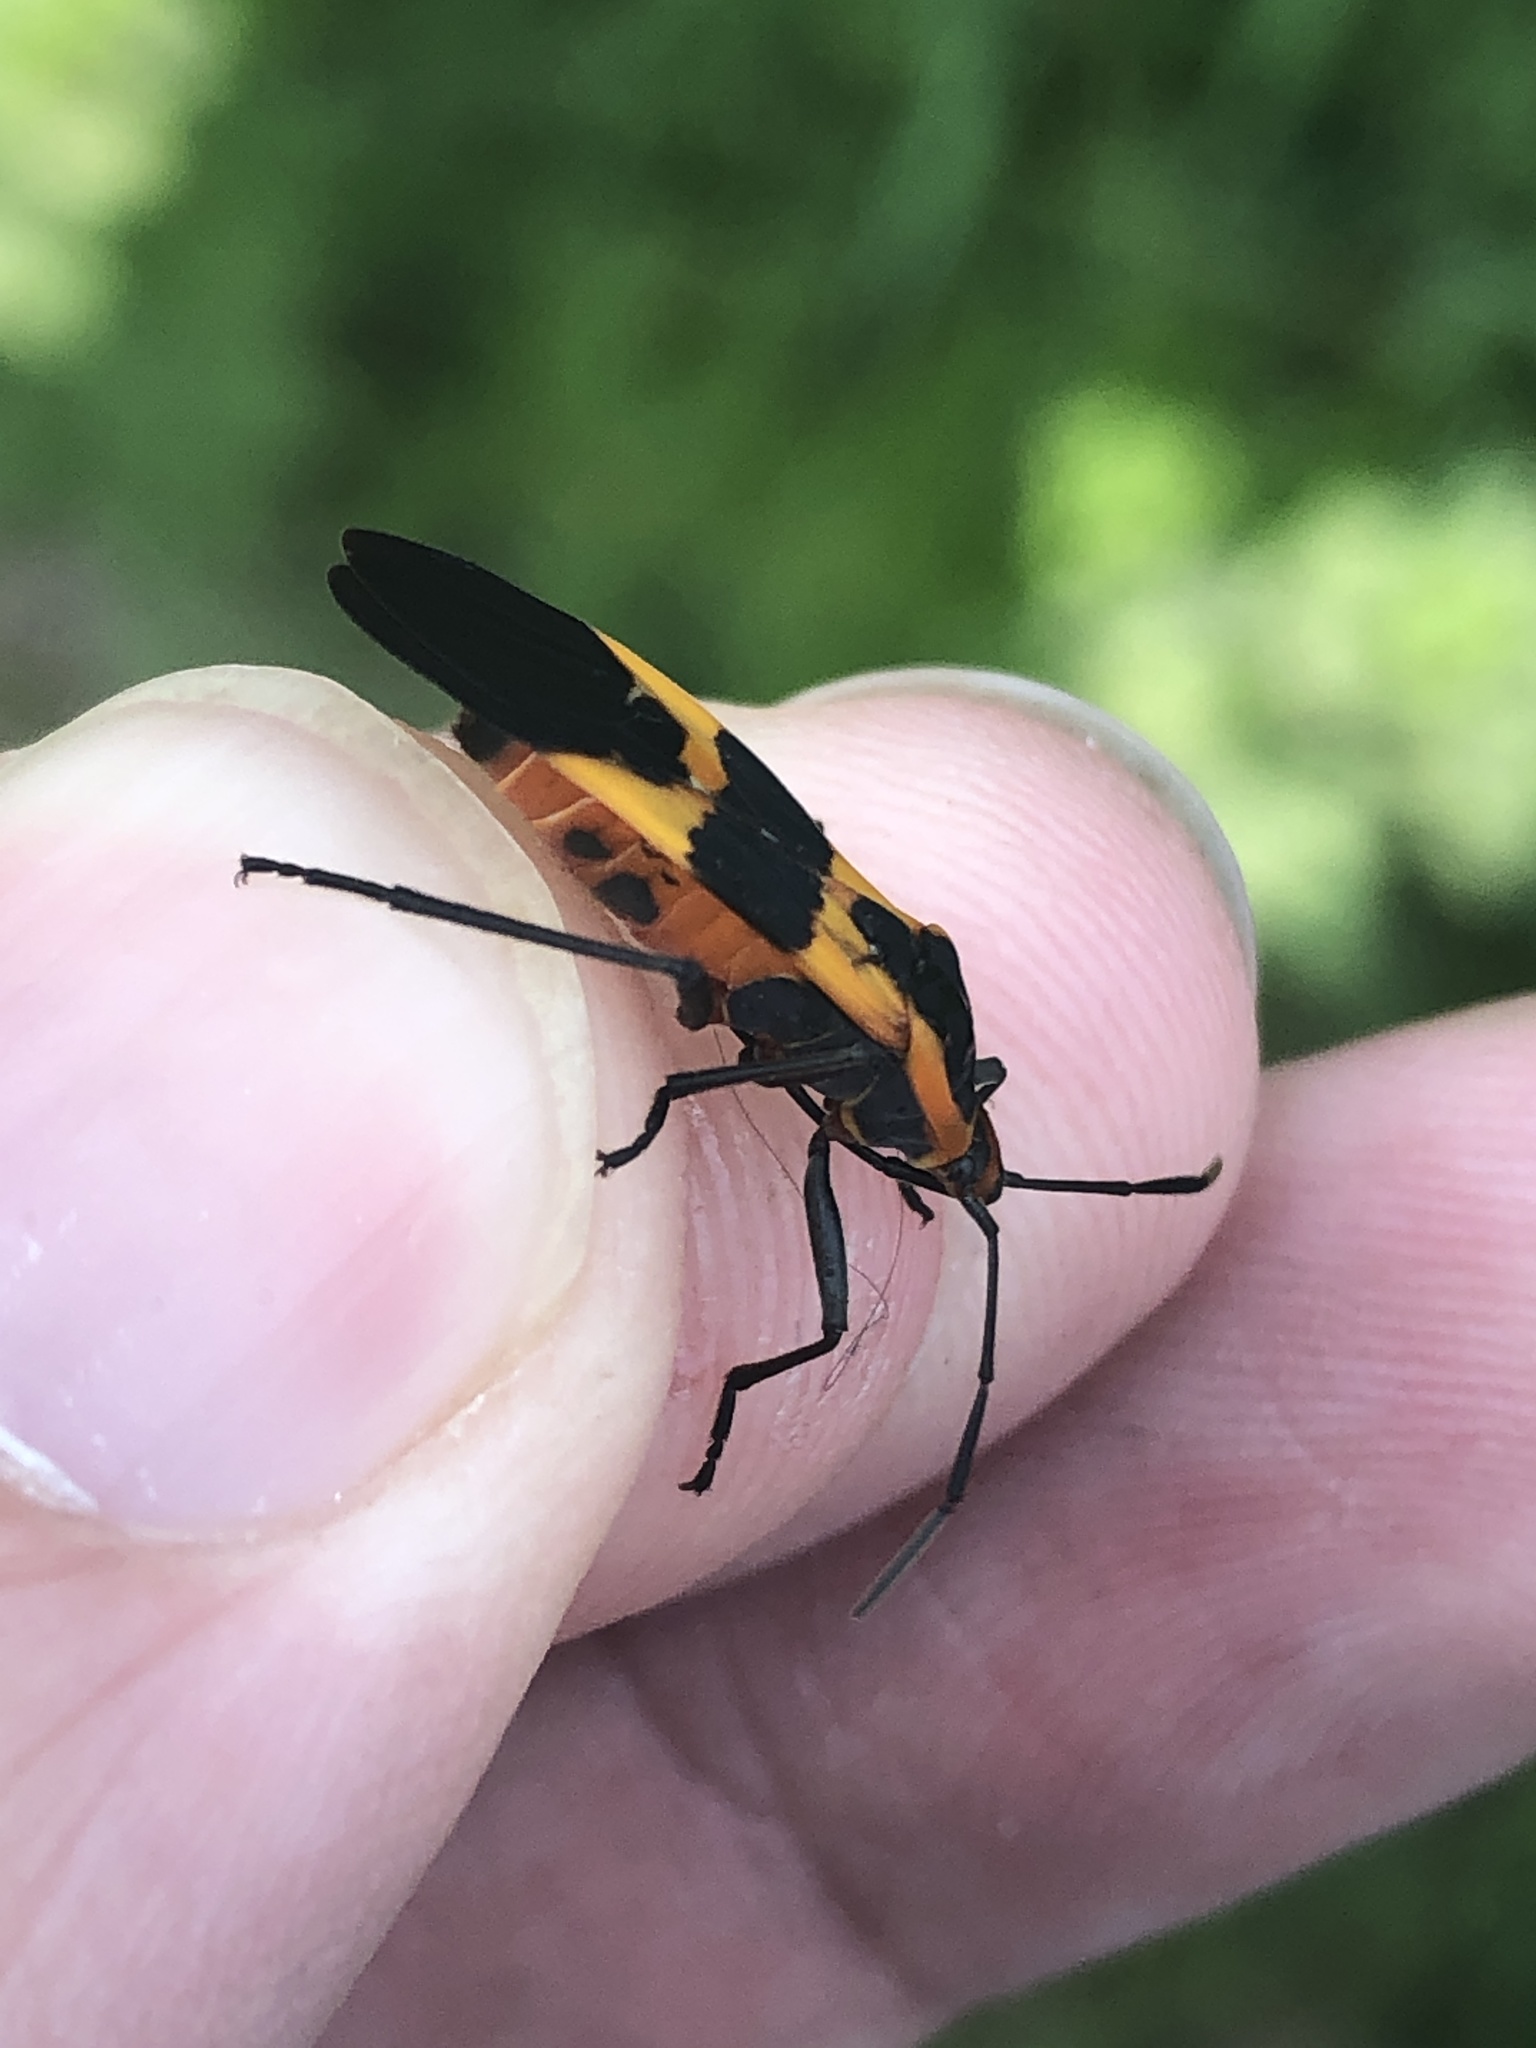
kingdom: Animalia
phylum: Arthropoda
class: Insecta
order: Hemiptera
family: Lygaeidae
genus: Oncopeltus
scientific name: Oncopeltus fasciatus
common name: Large milkweed bug
